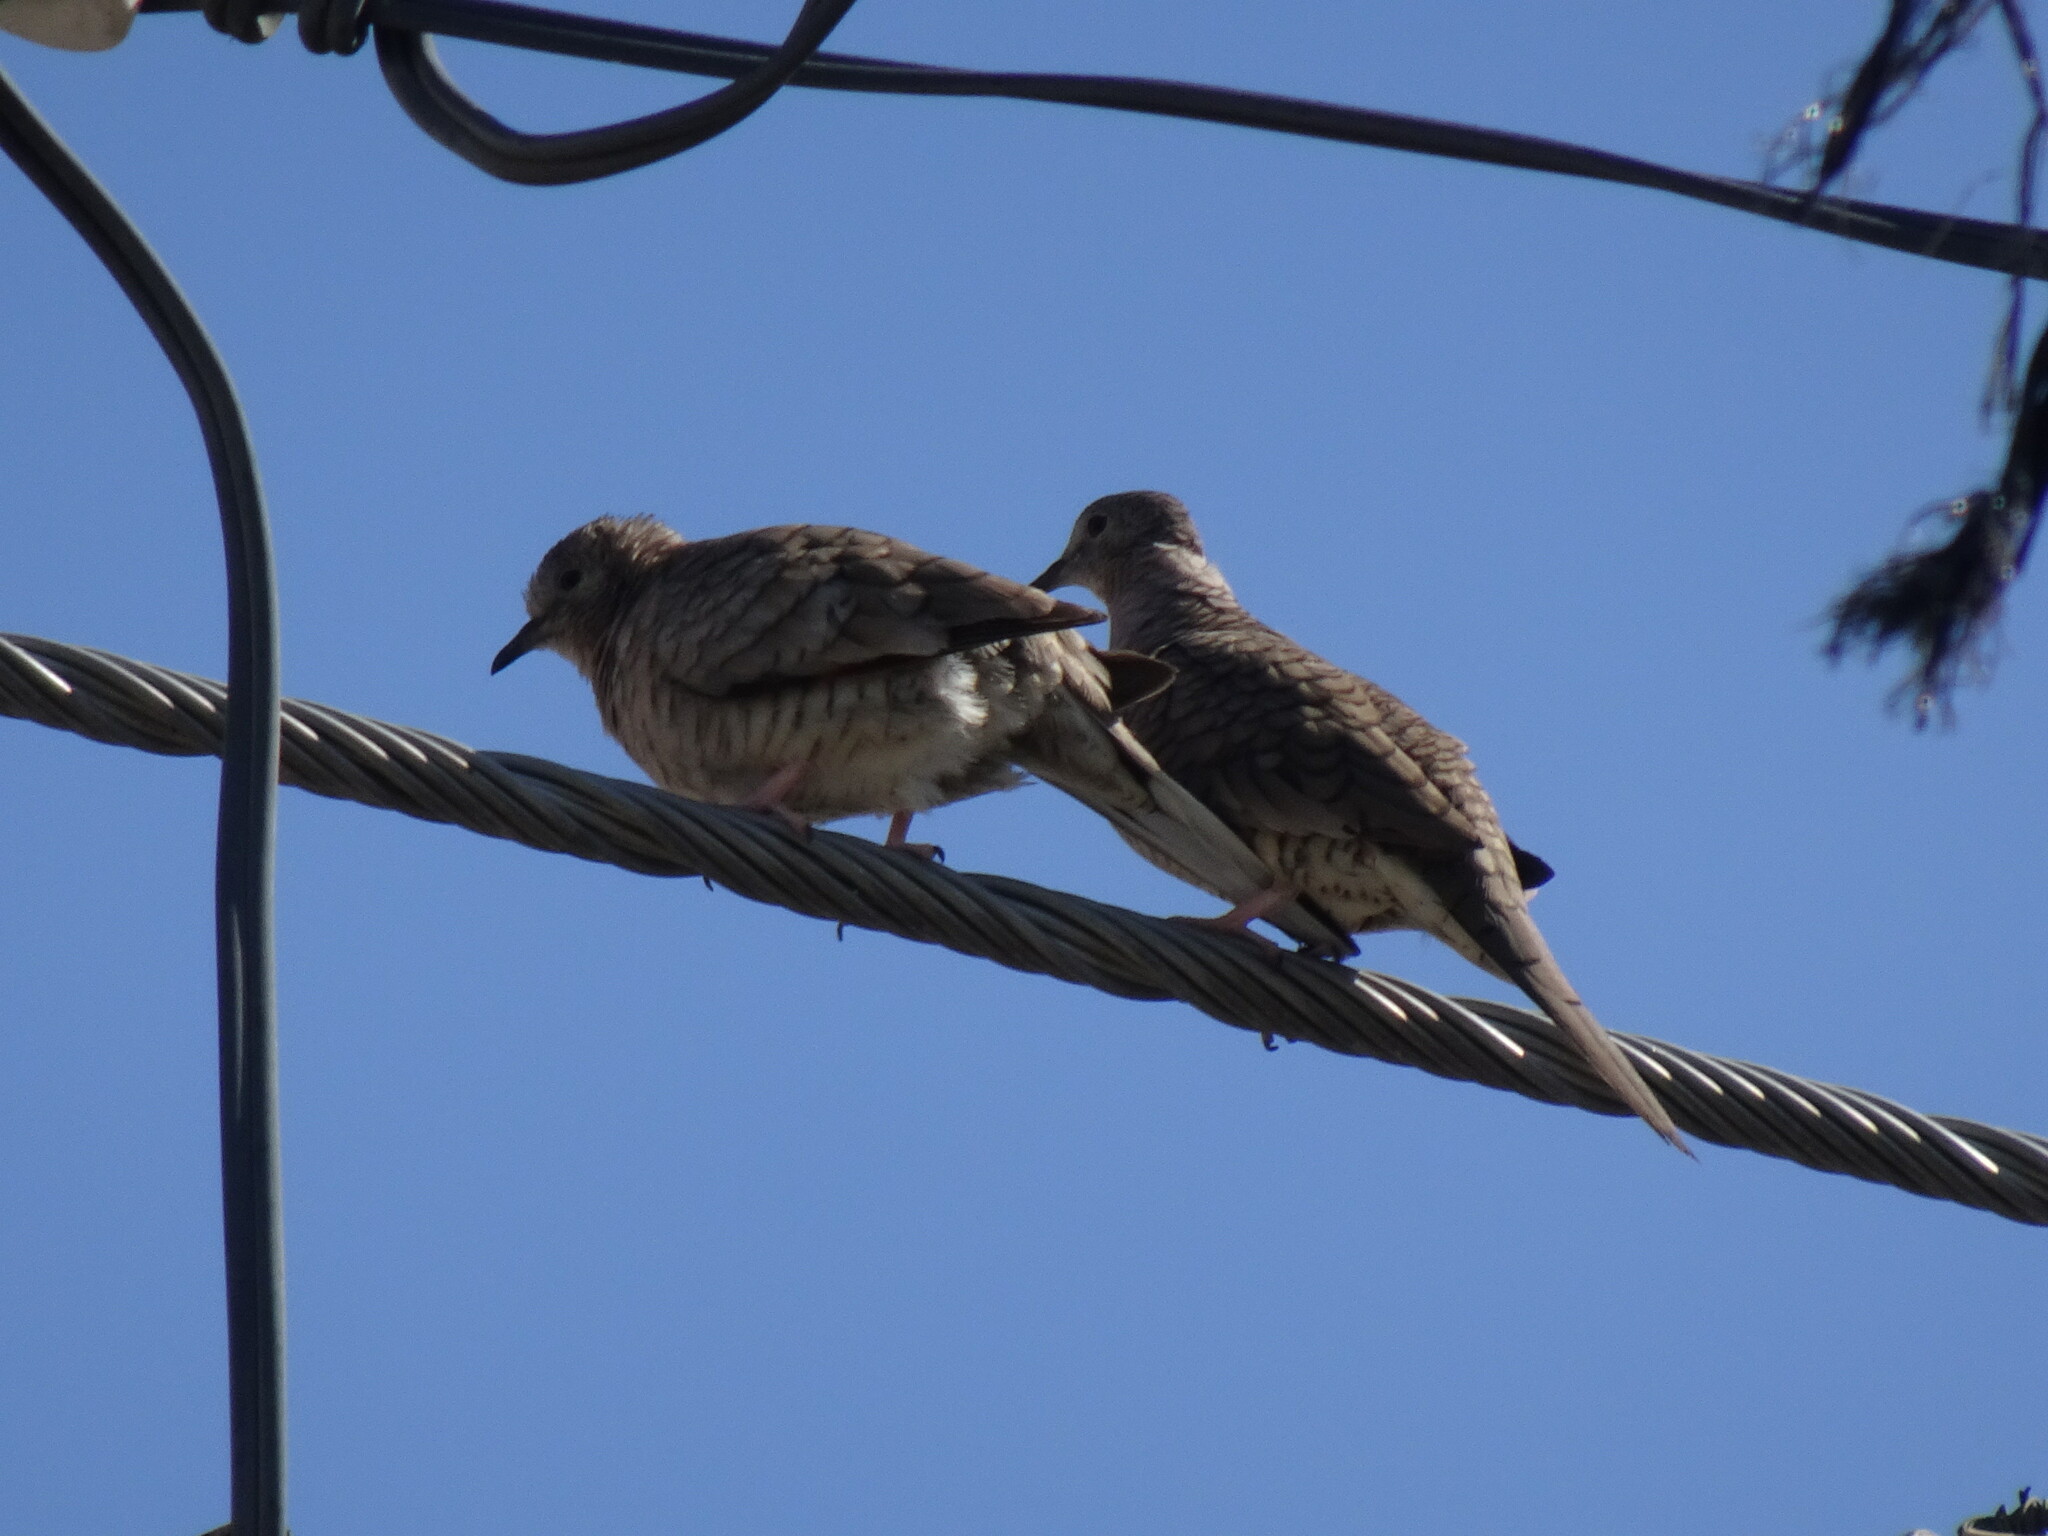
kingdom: Animalia
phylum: Chordata
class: Aves
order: Columbiformes
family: Columbidae
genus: Columbina
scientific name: Columbina inca
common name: Inca dove
